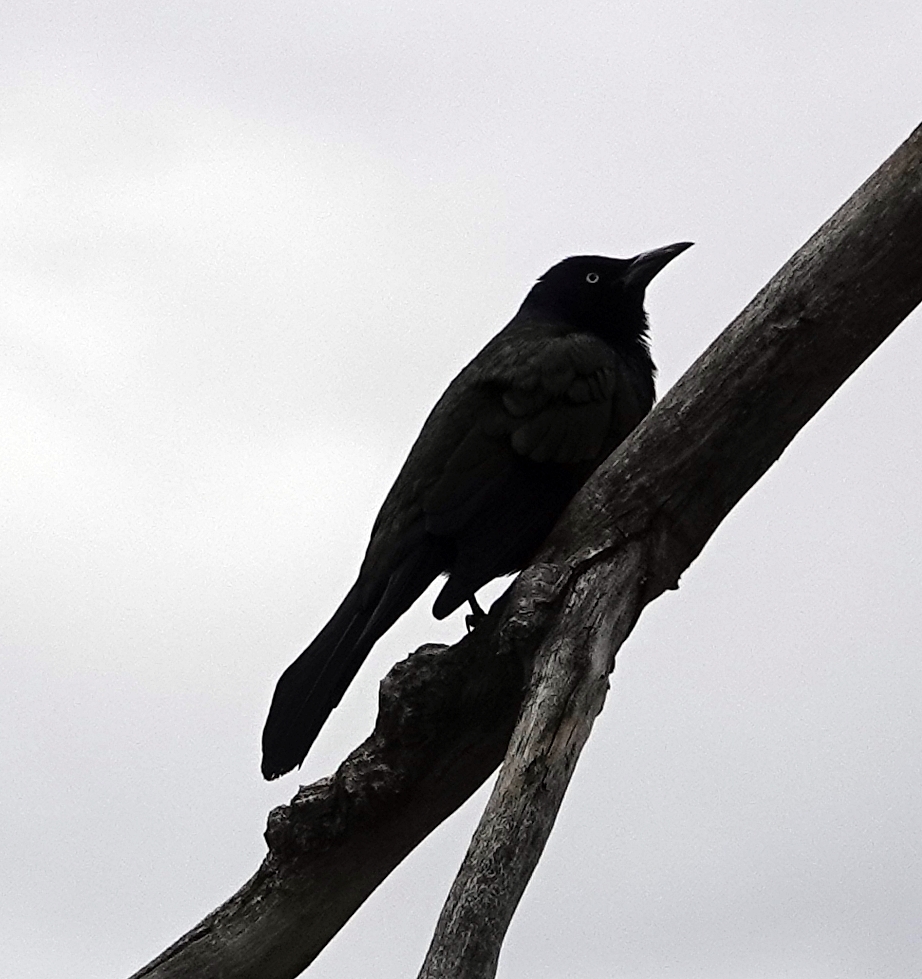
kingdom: Animalia
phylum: Chordata
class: Aves
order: Passeriformes
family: Icteridae
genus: Quiscalus
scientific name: Quiscalus quiscula
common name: Common grackle
